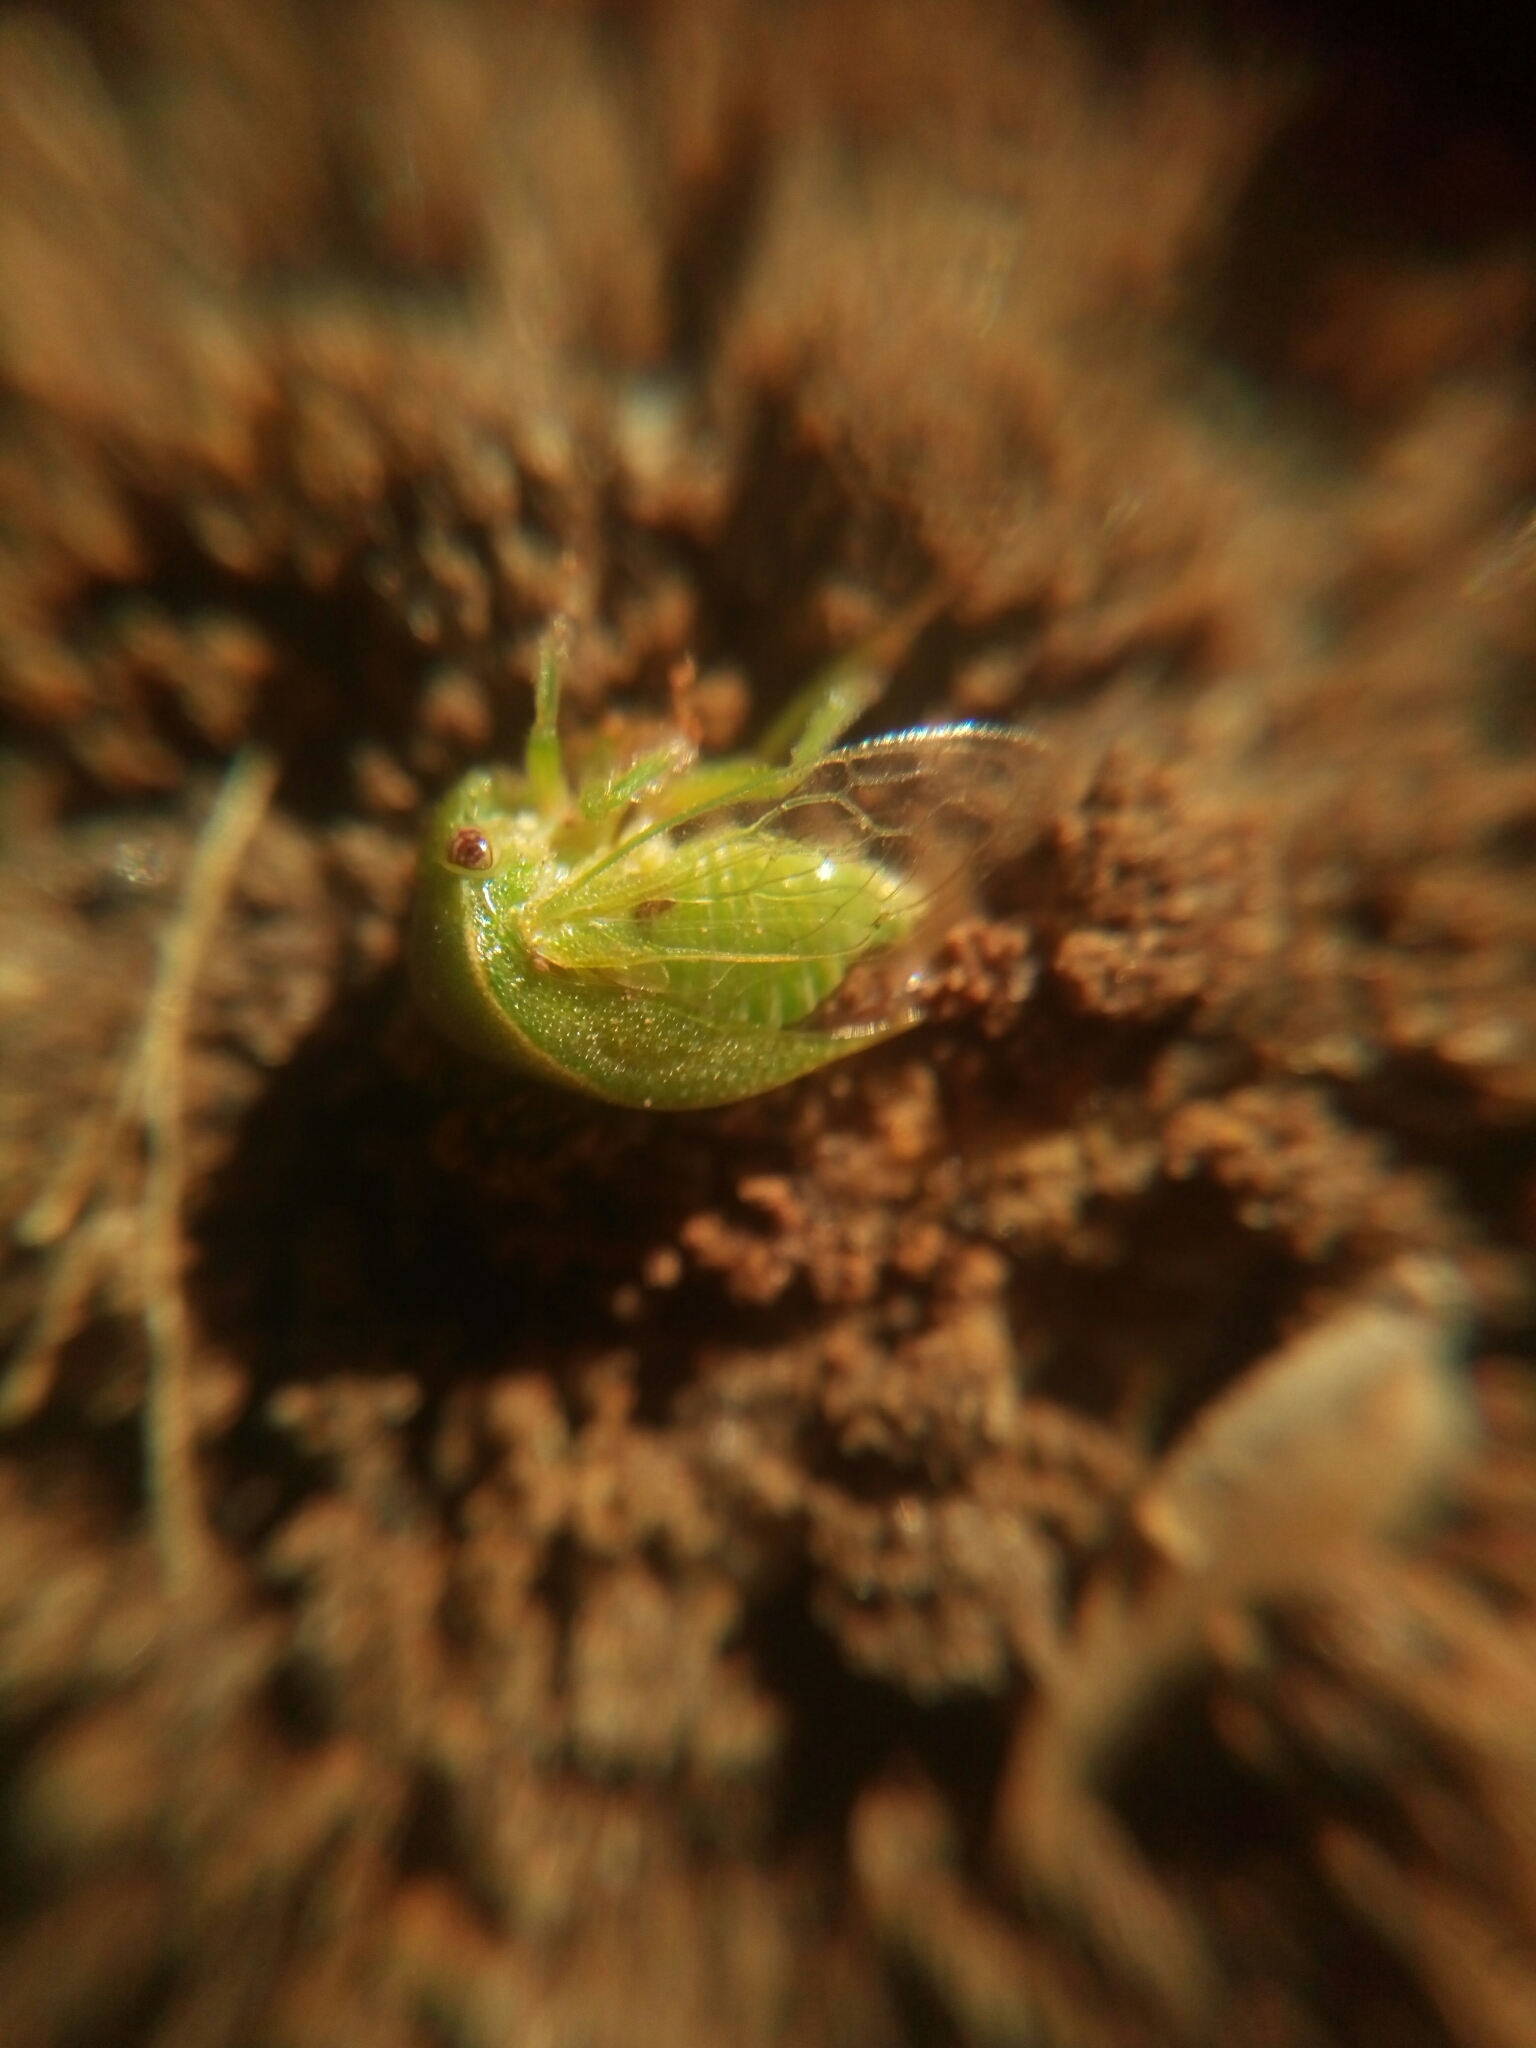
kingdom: Animalia
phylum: Arthropoda
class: Insecta
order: Hemiptera
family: Membracidae
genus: Spissistilus
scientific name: Spissistilus festina
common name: Membracid bug
